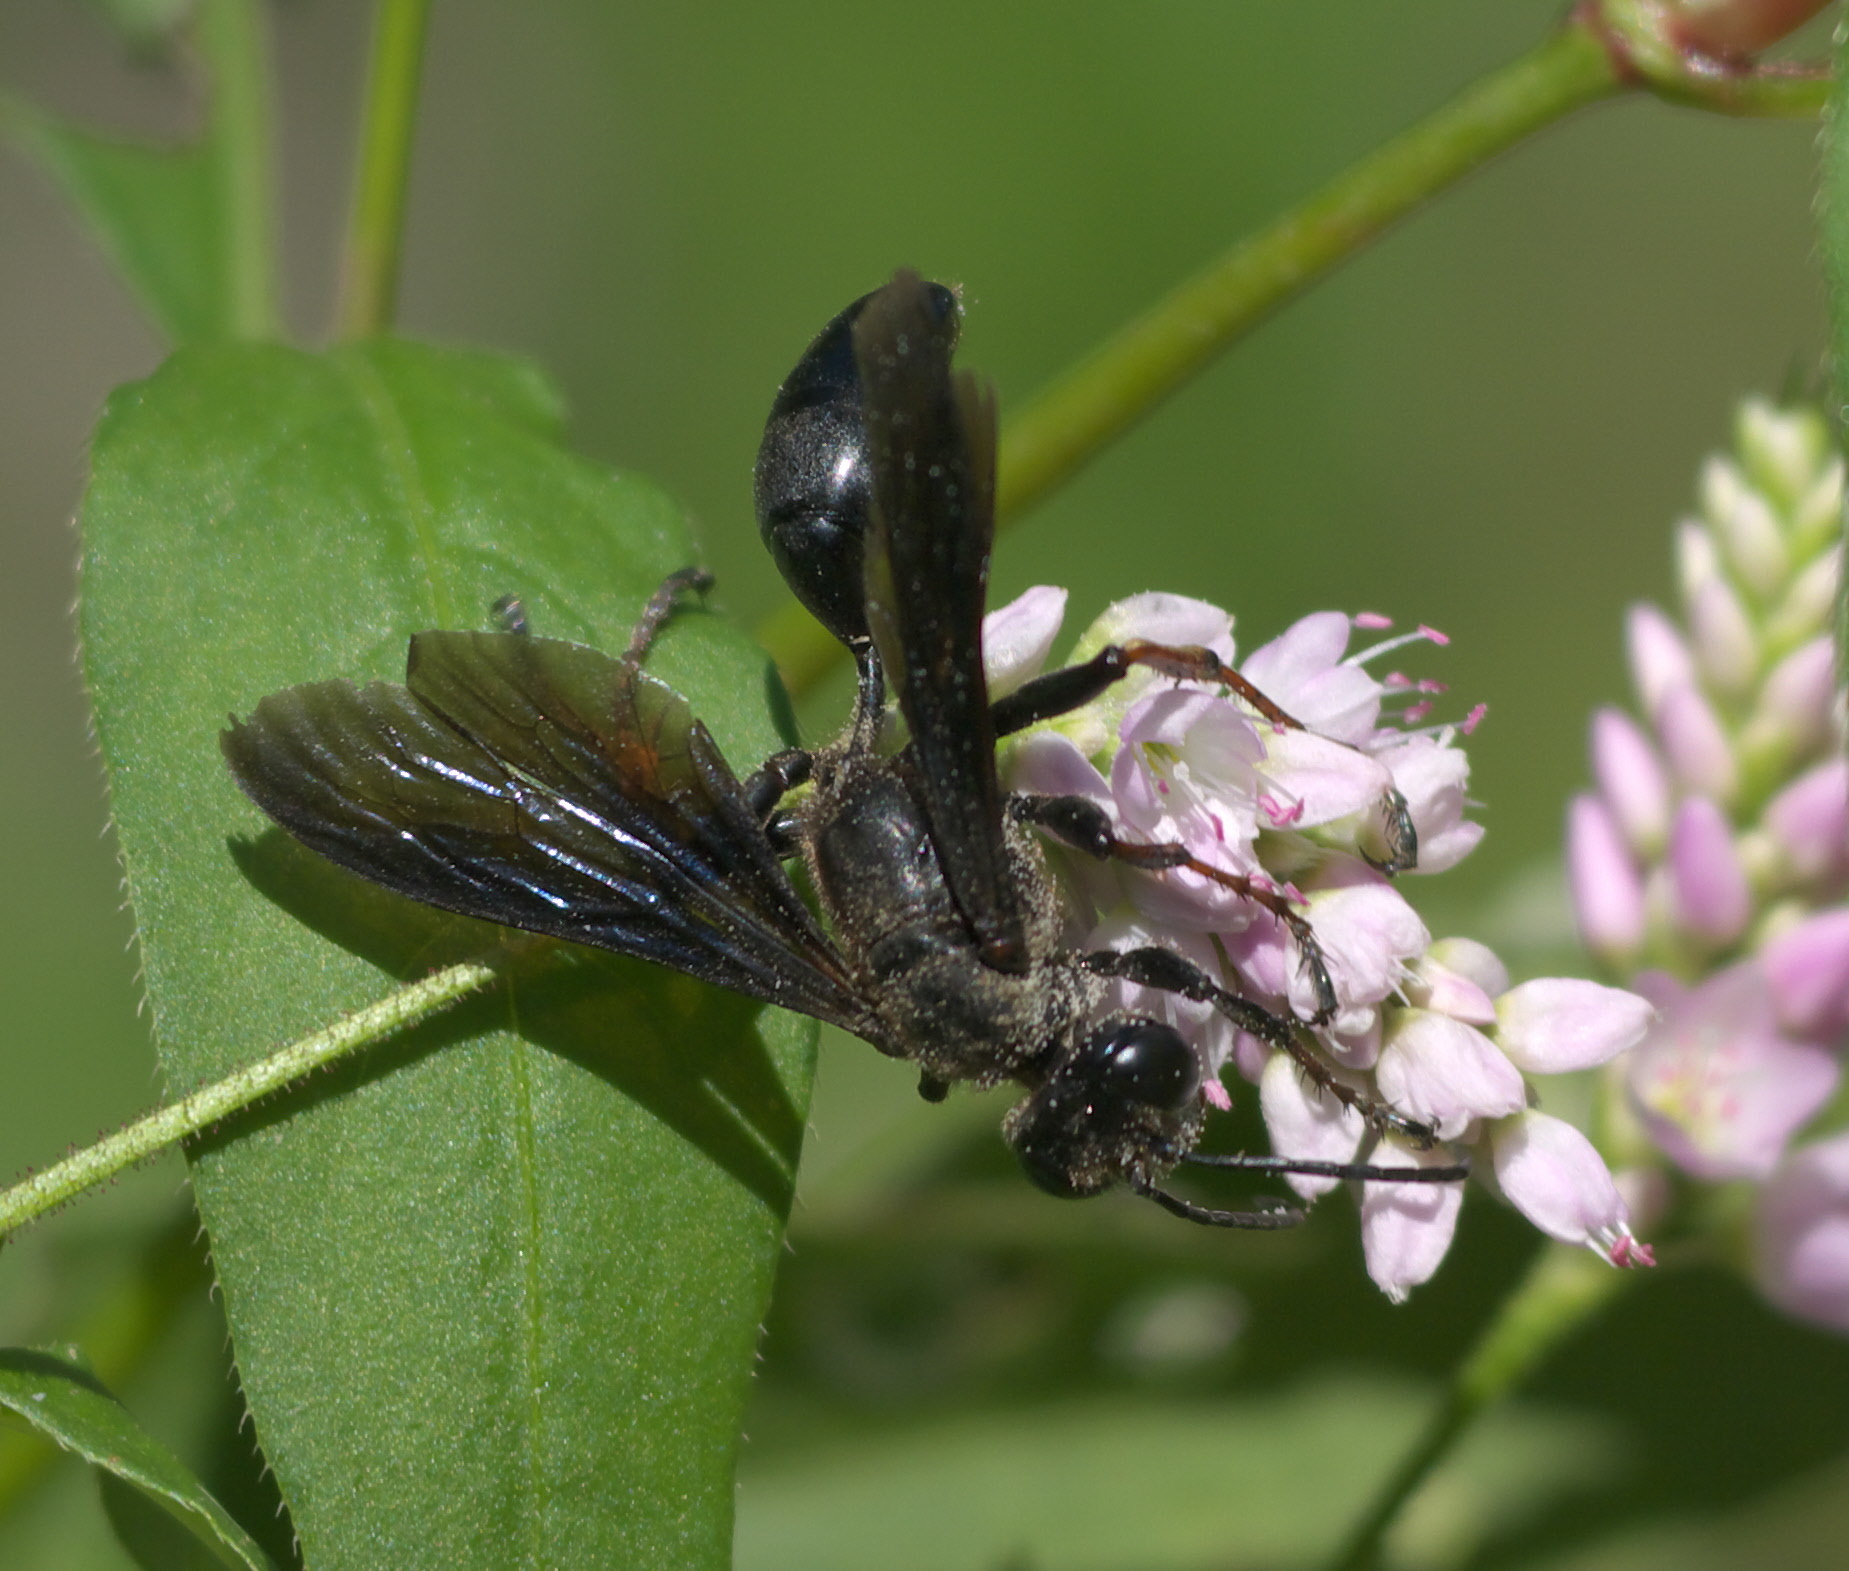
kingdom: Animalia
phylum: Arthropoda
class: Insecta
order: Hymenoptera
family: Sphecidae
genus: Isodontia
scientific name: Isodontia auripes
